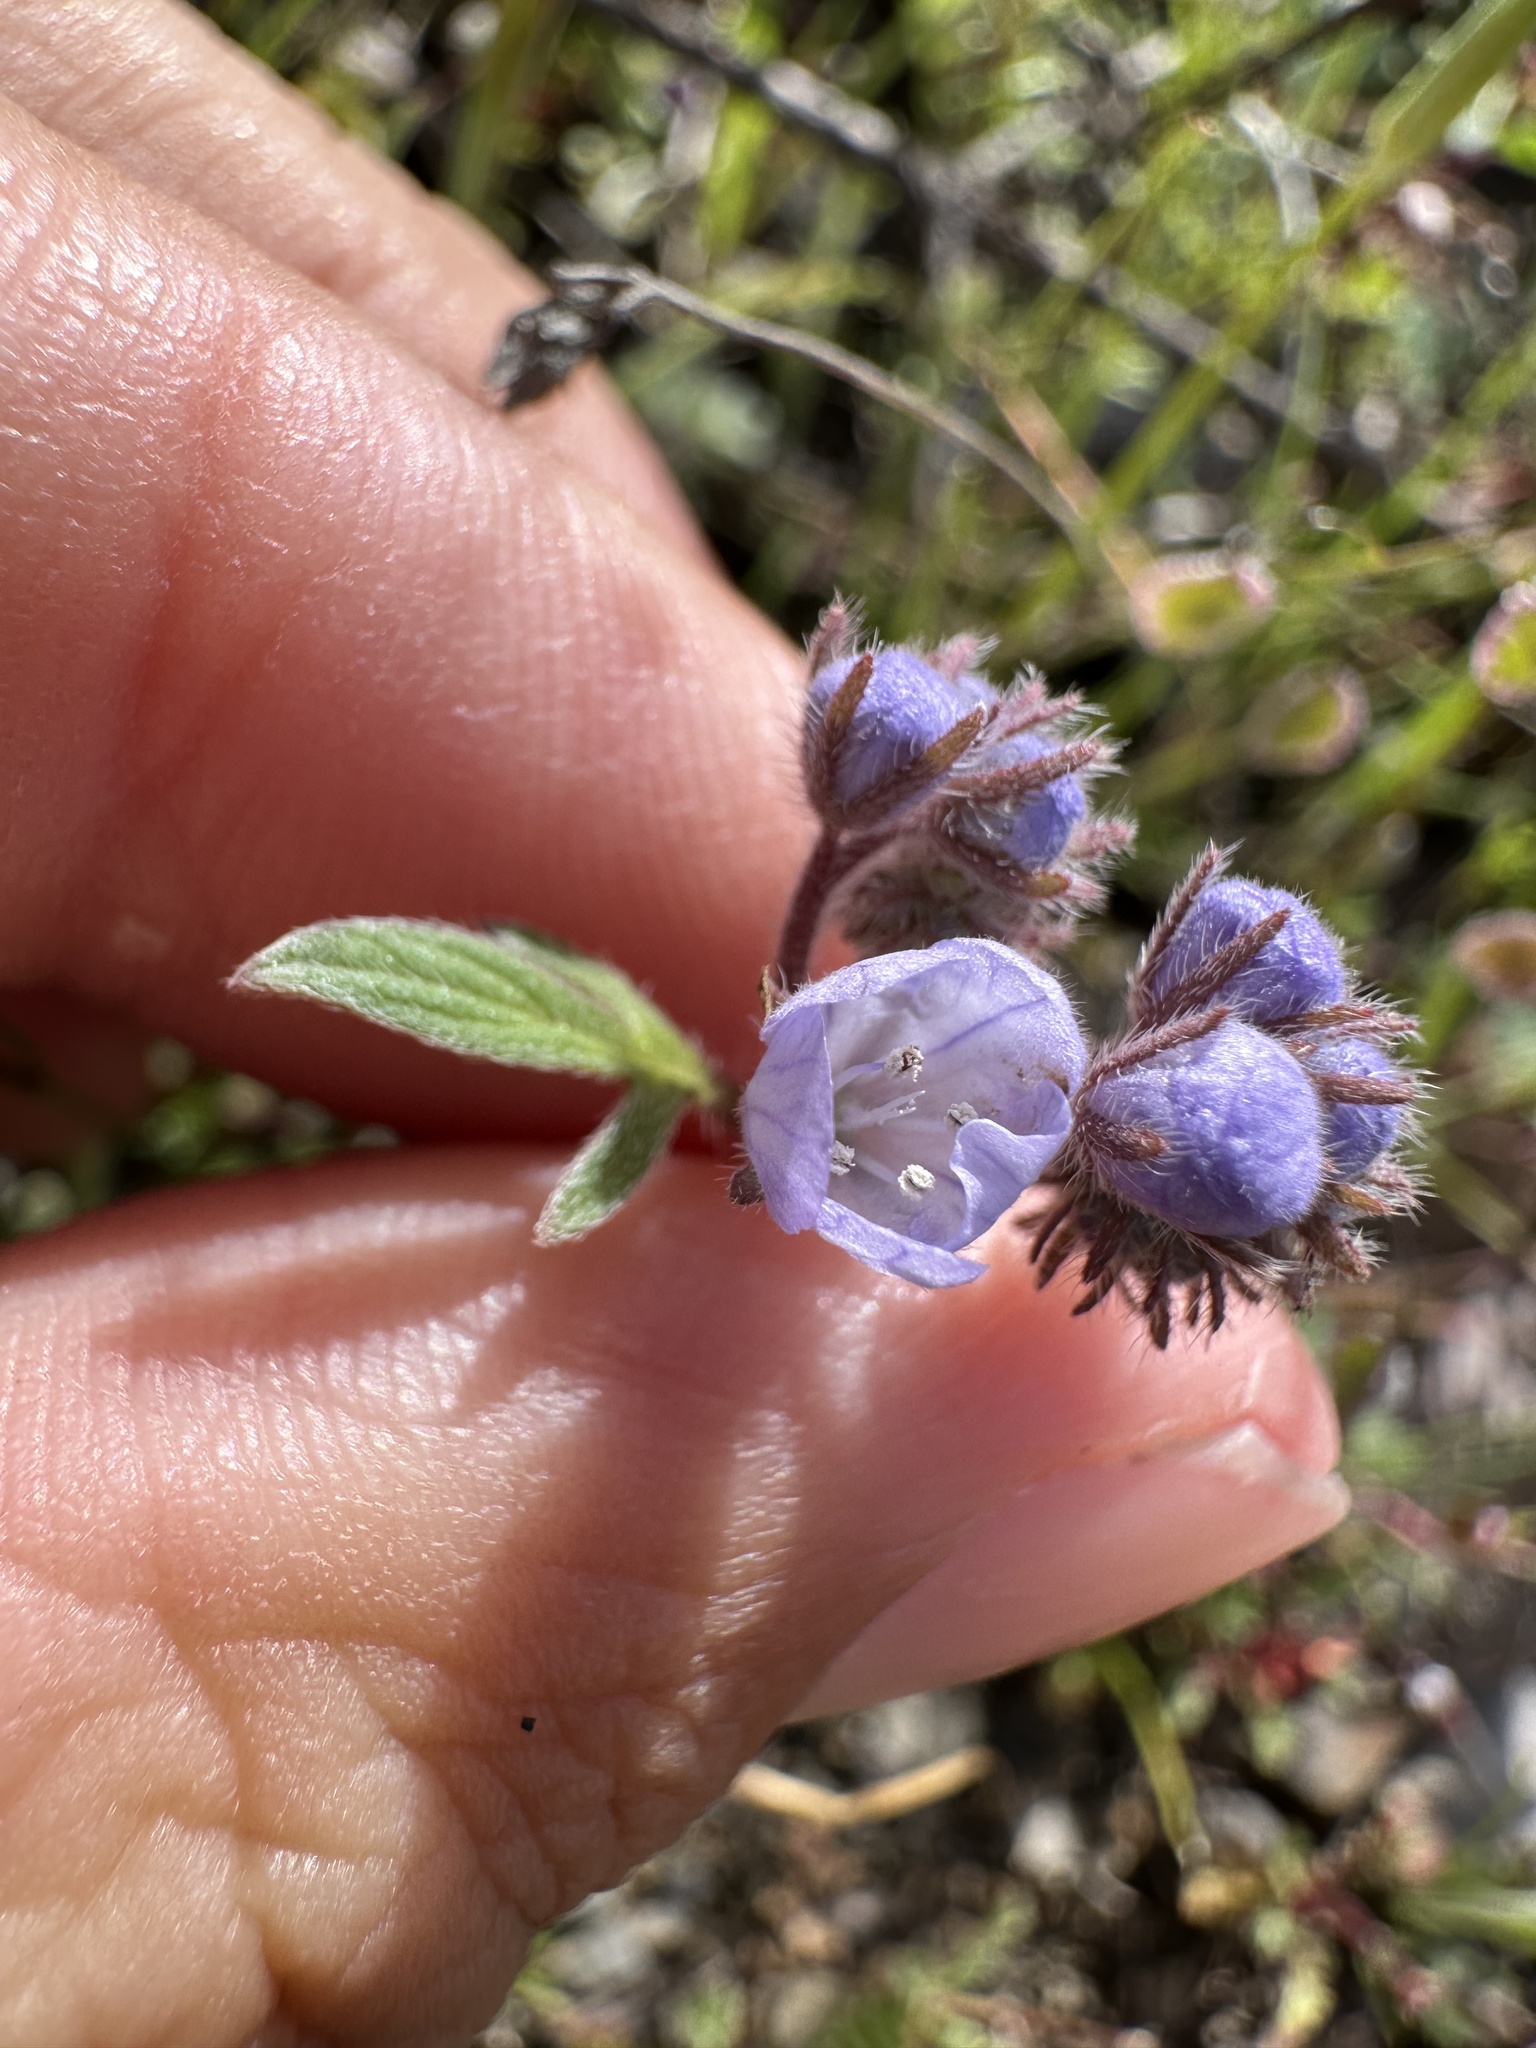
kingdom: Plantae
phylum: Tracheophyta
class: Magnoliopsida
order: Boraginales
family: Hydrophyllaceae
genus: Phacelia
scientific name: Phacelia breweri
